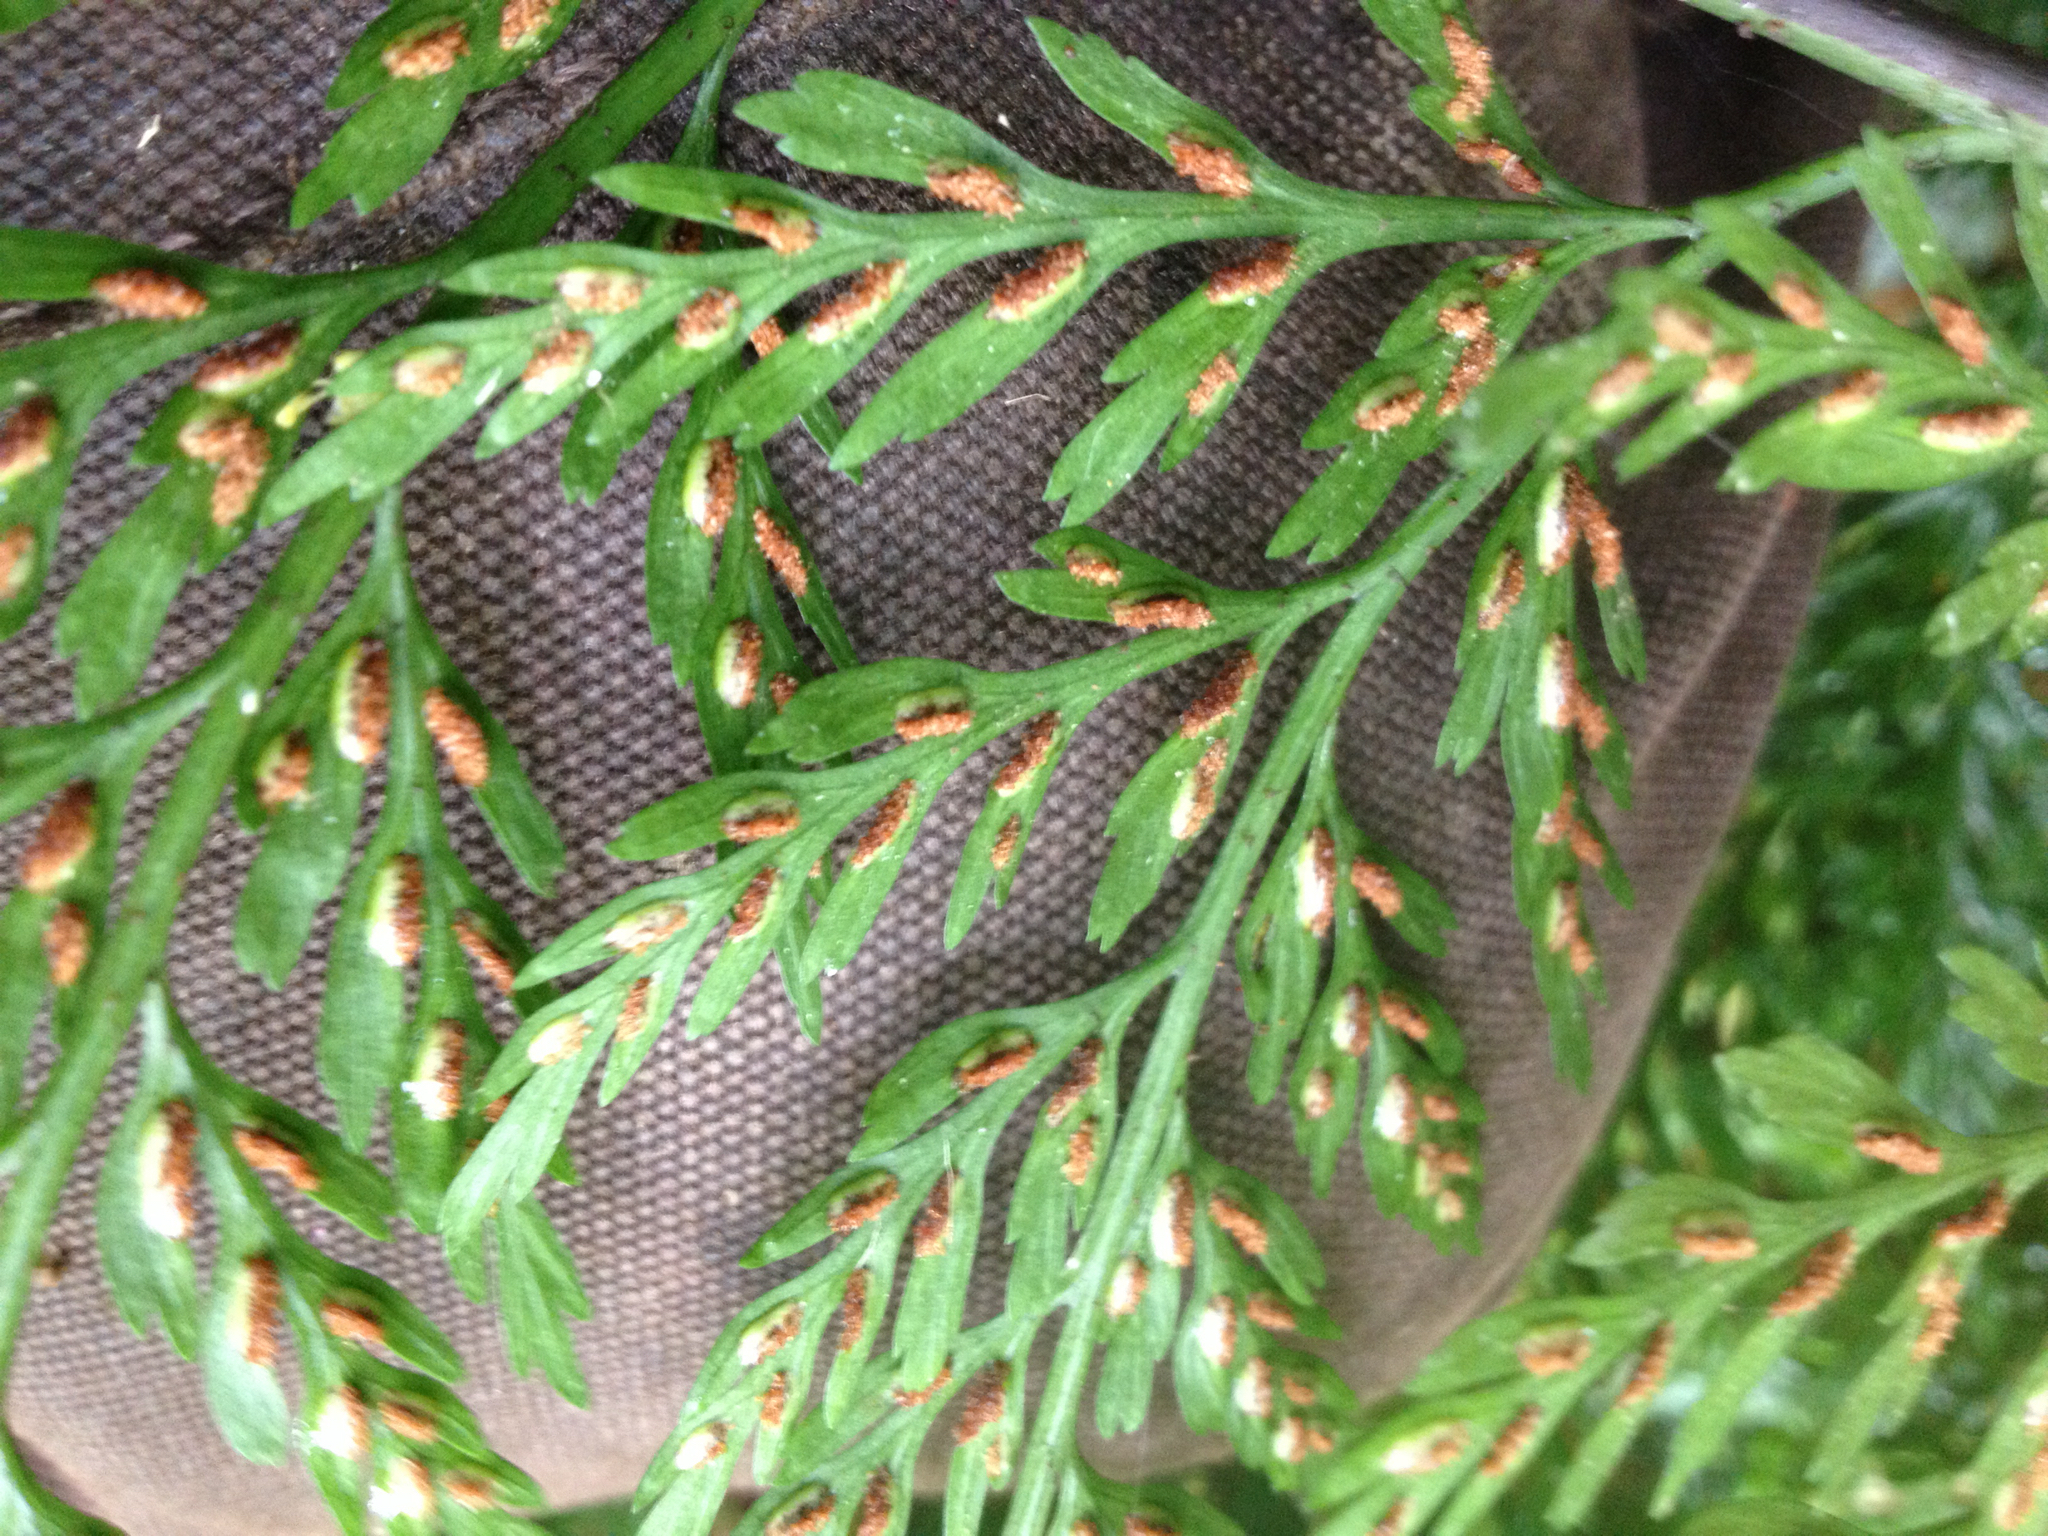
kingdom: Plantae
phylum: Tracheophyta
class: Polypodiopsida
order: Polypodiales
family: Aspleniaceae
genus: Asplenium
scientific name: Asplenium
